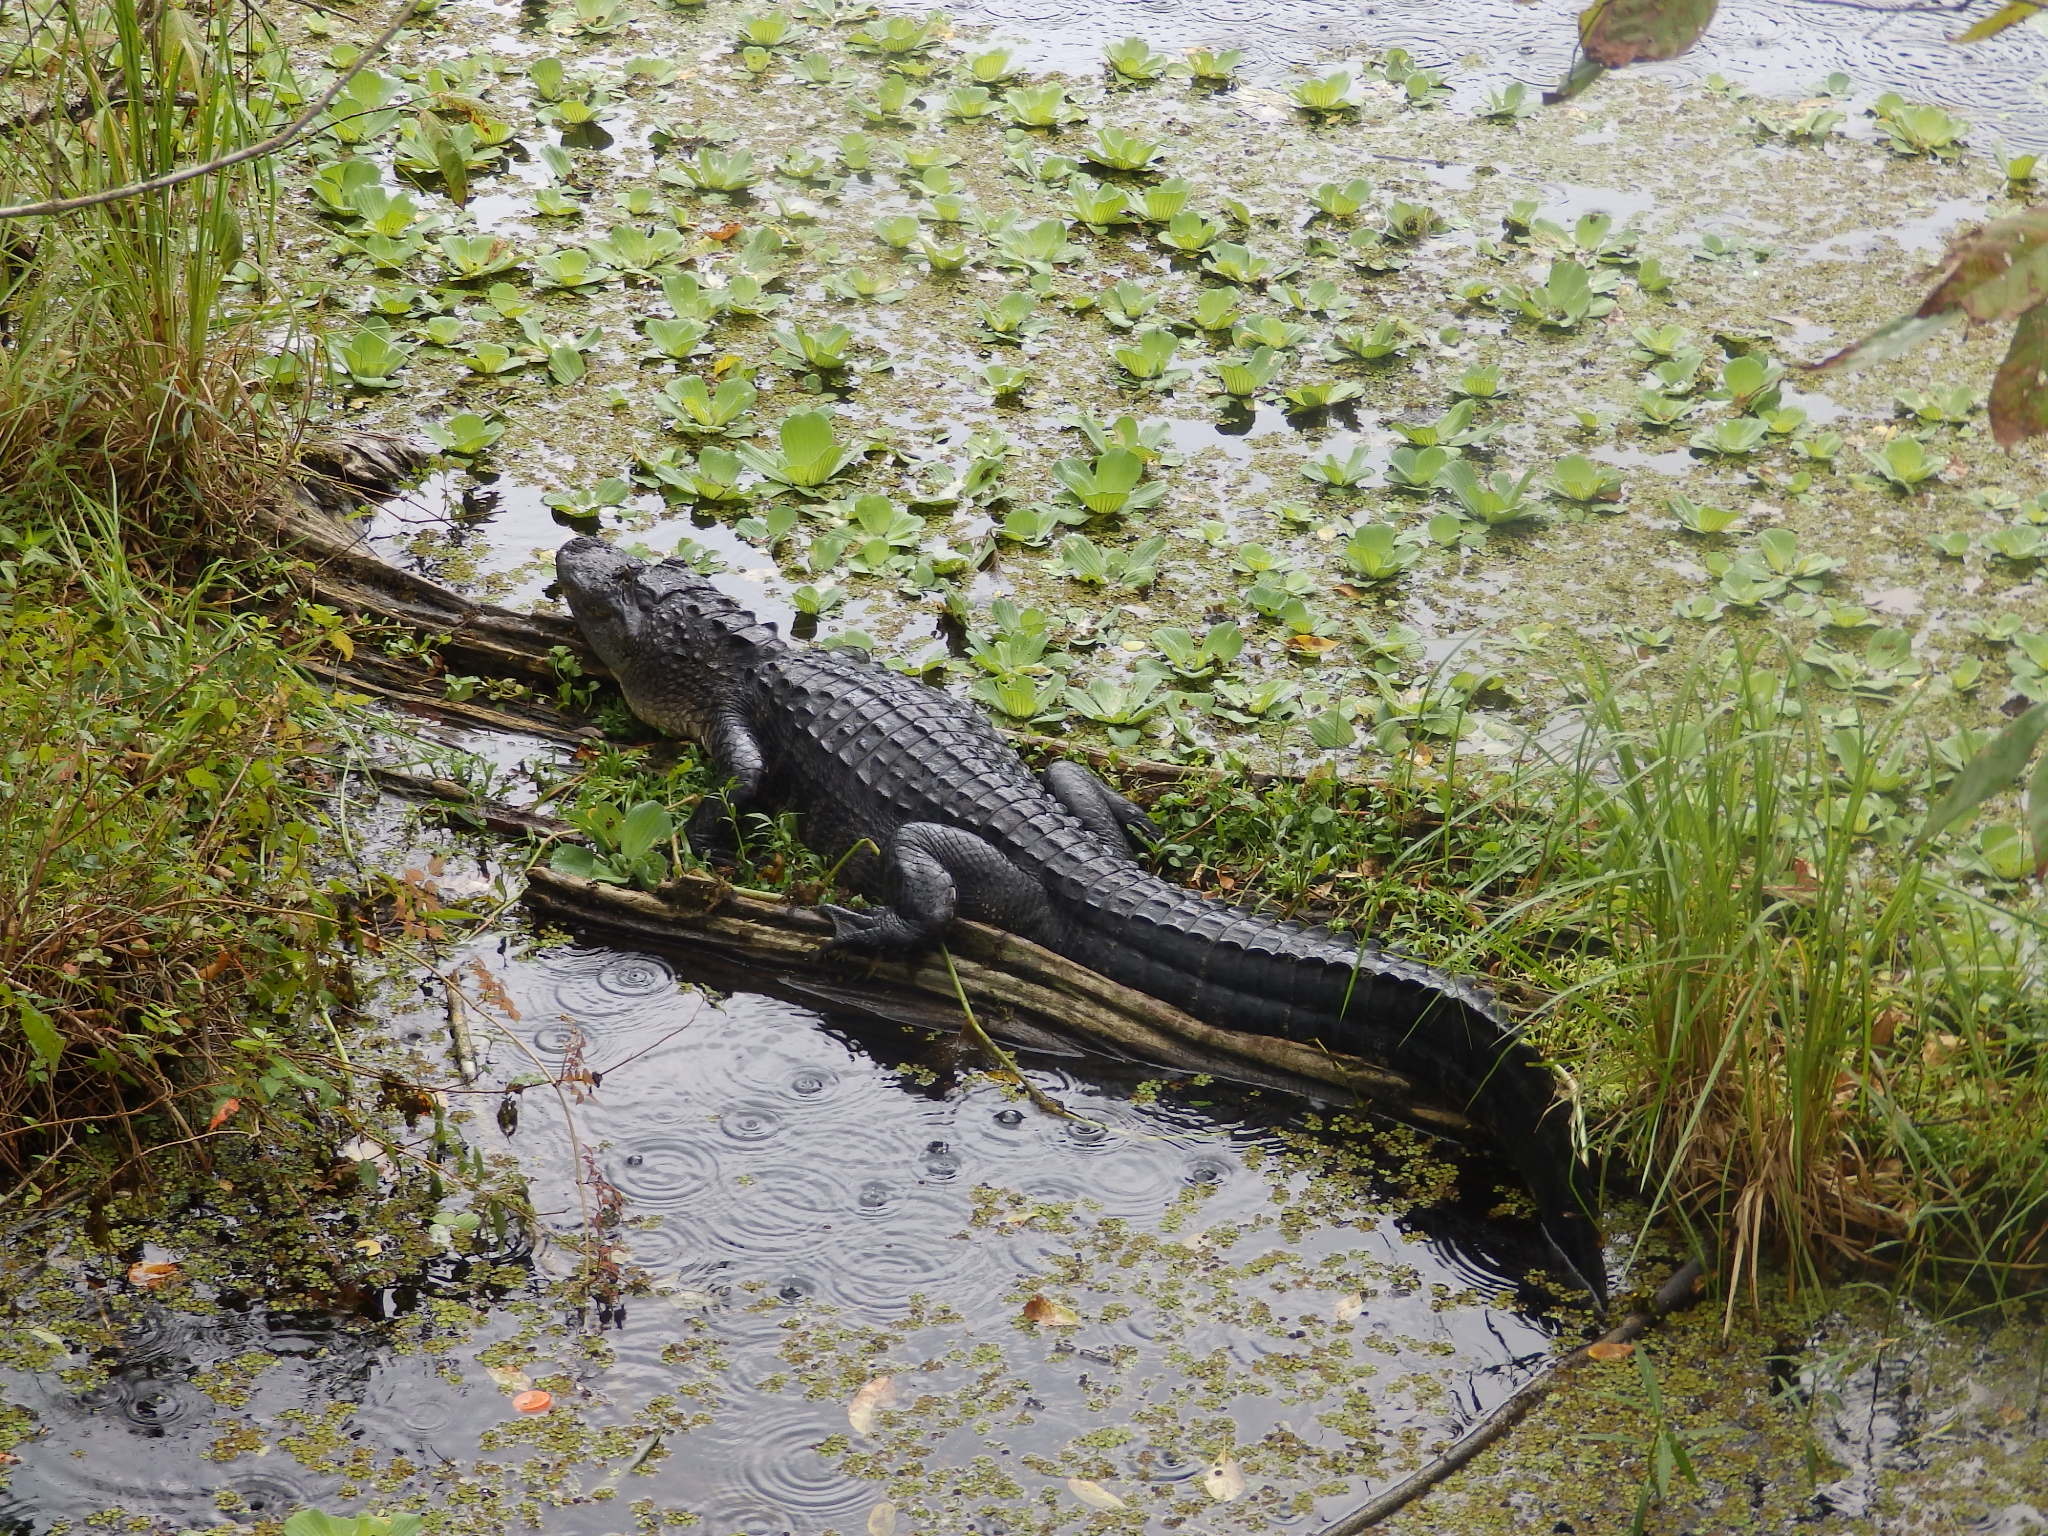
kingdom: Animalia
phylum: Chordata
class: Crocodylia
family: Alligatoridae
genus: Alligator
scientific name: Alligator mississippiensis
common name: American alligator
